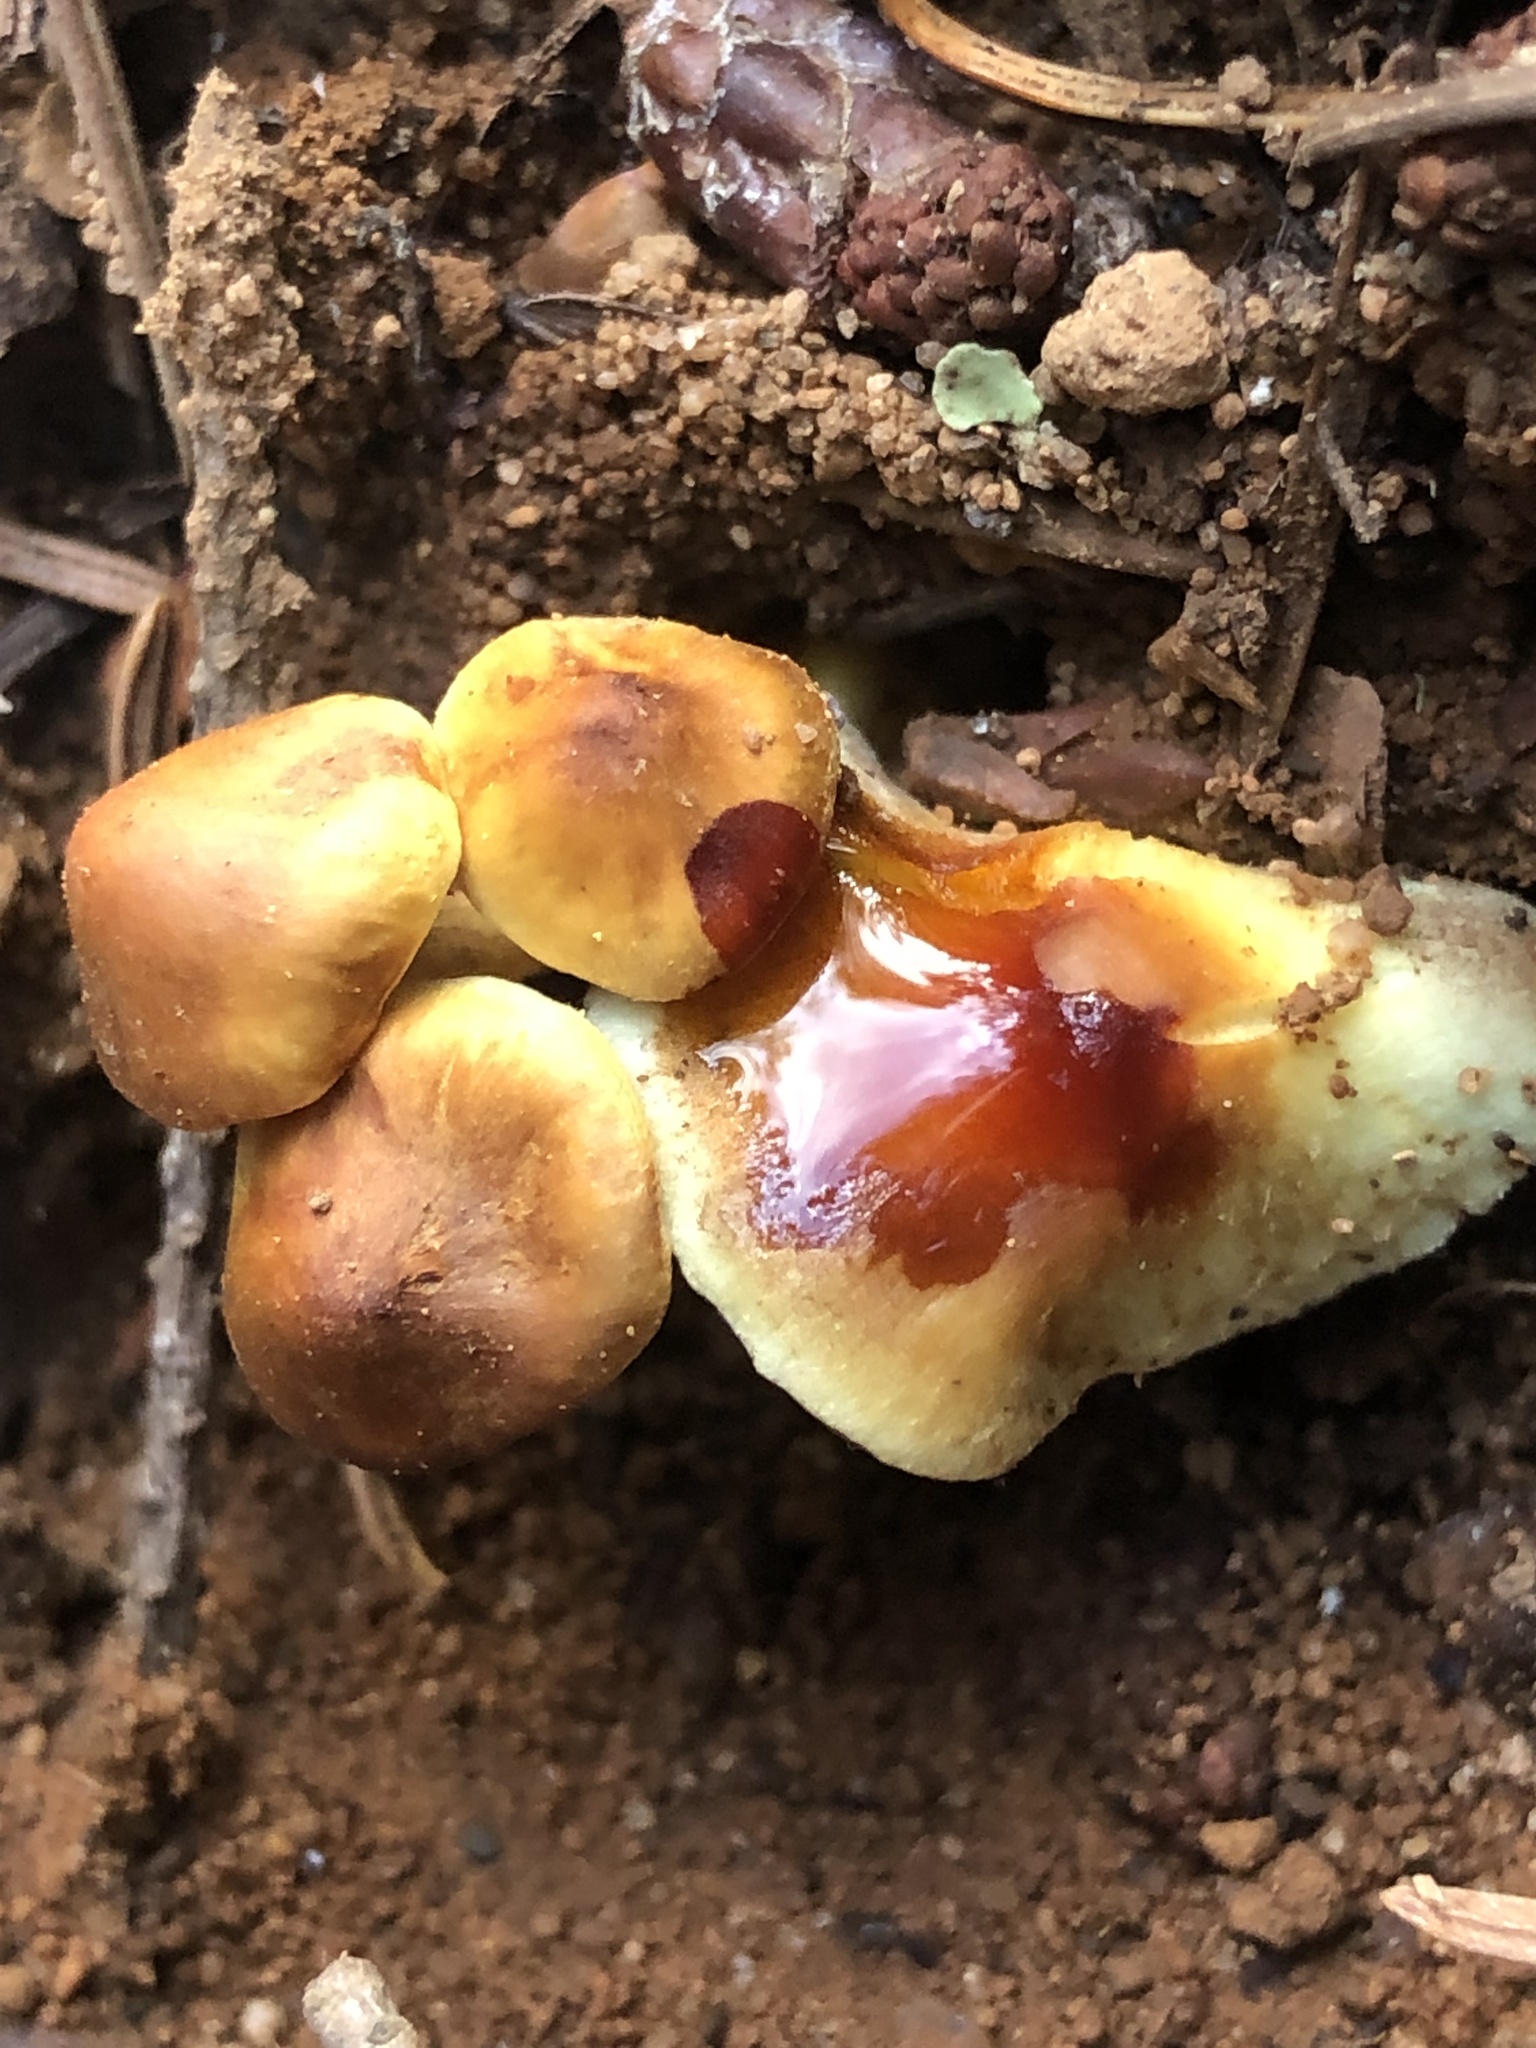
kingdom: Fungi
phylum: Basidiomycota
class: Agaricomycetes
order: Agaricales
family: Strophariaceae
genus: Hypholoma
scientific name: Hypholoma fasciculare
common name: Sulphur tuft
